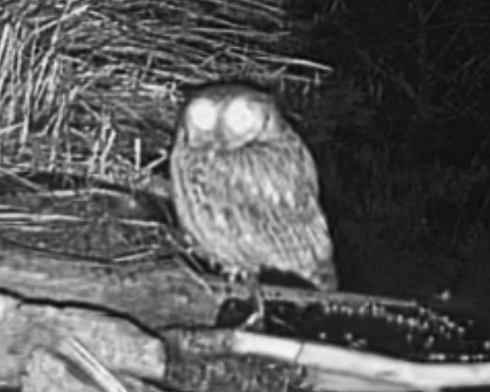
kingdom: Animalia
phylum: Chordata
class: Aves
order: Strigiformes
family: Strigidae
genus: Megascops
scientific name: Megascops asio
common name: Eastern screech-owl
